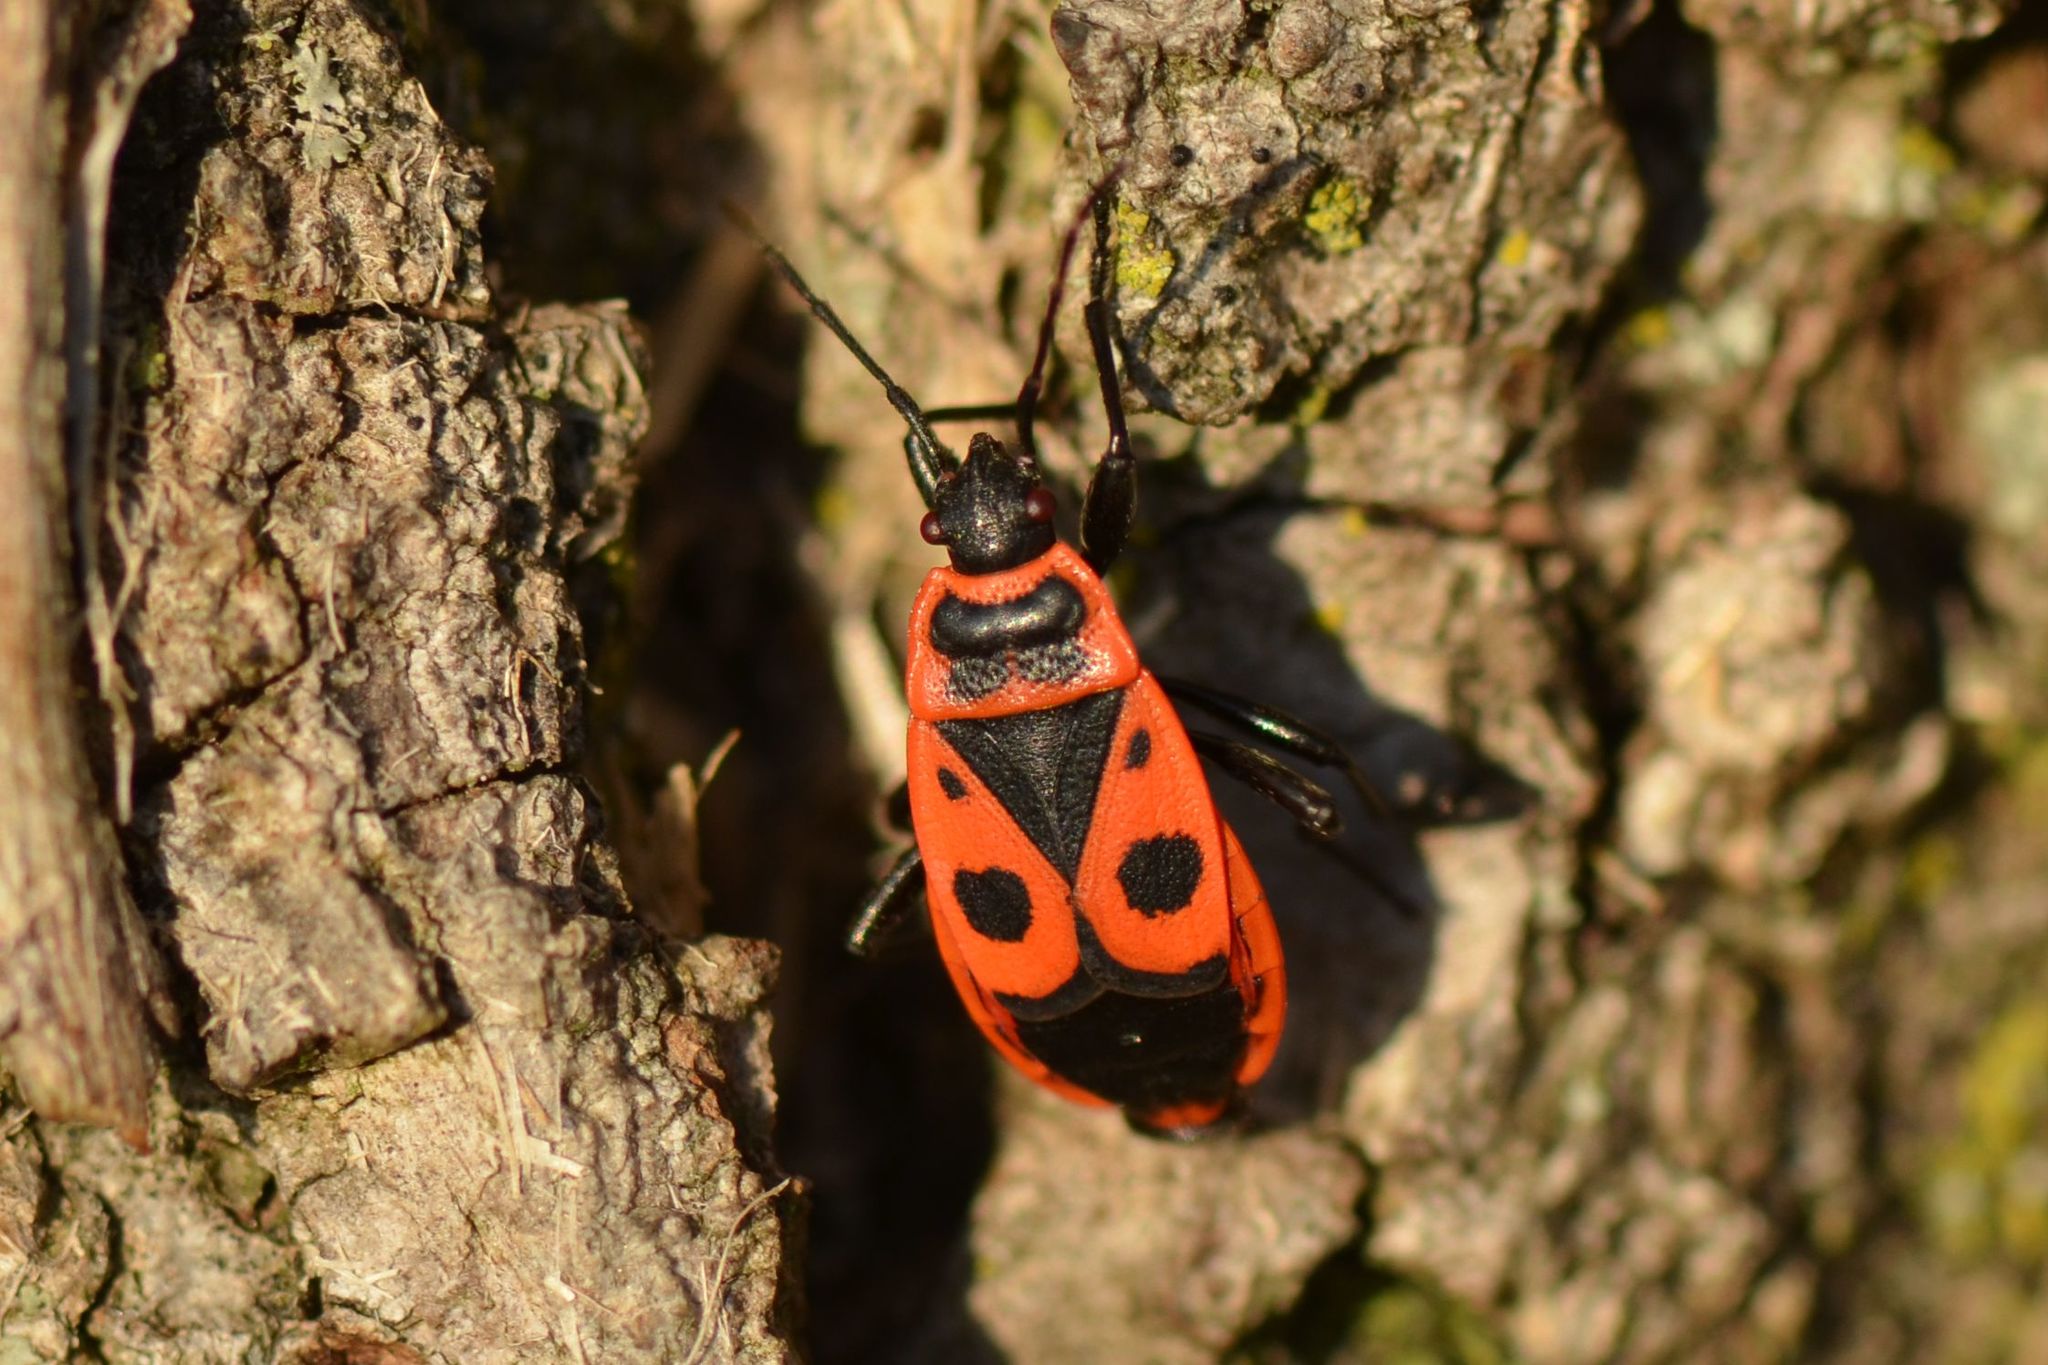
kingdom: Animalia
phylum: Arthropoda
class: Insecta
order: Hemiptera
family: Pyrrhocoridae
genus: Pyrrhocoris
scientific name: Pyrrhocoris apterus
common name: Firebug
